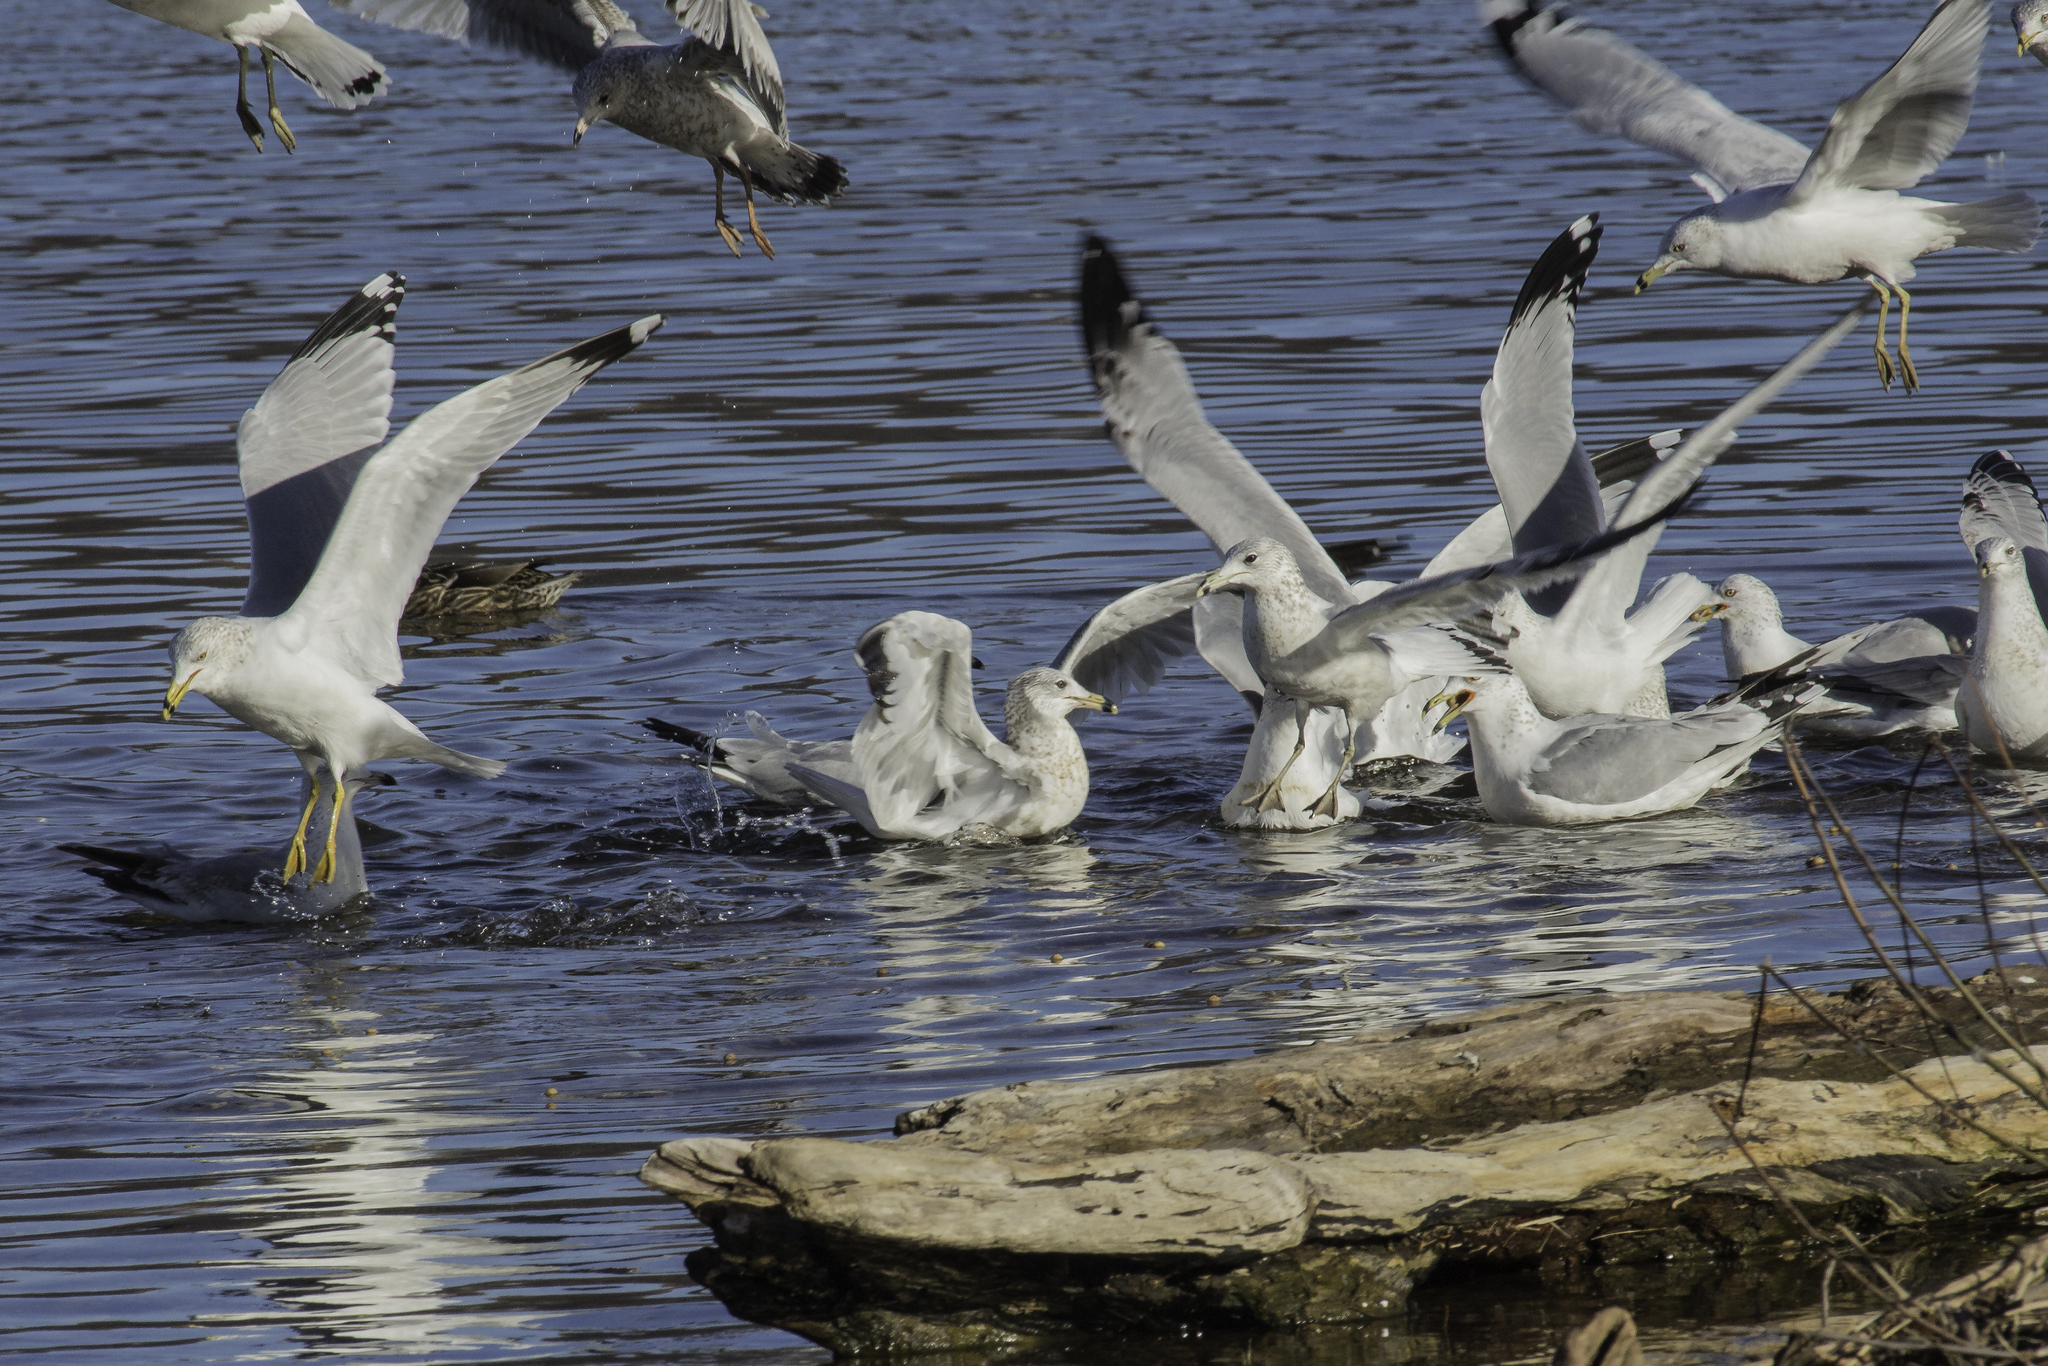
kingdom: Animalia
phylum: Chordata
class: Aves
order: Charadriiformes
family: Laridae
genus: Larus
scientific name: Larus delawarensis
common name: Ring-billed gull
